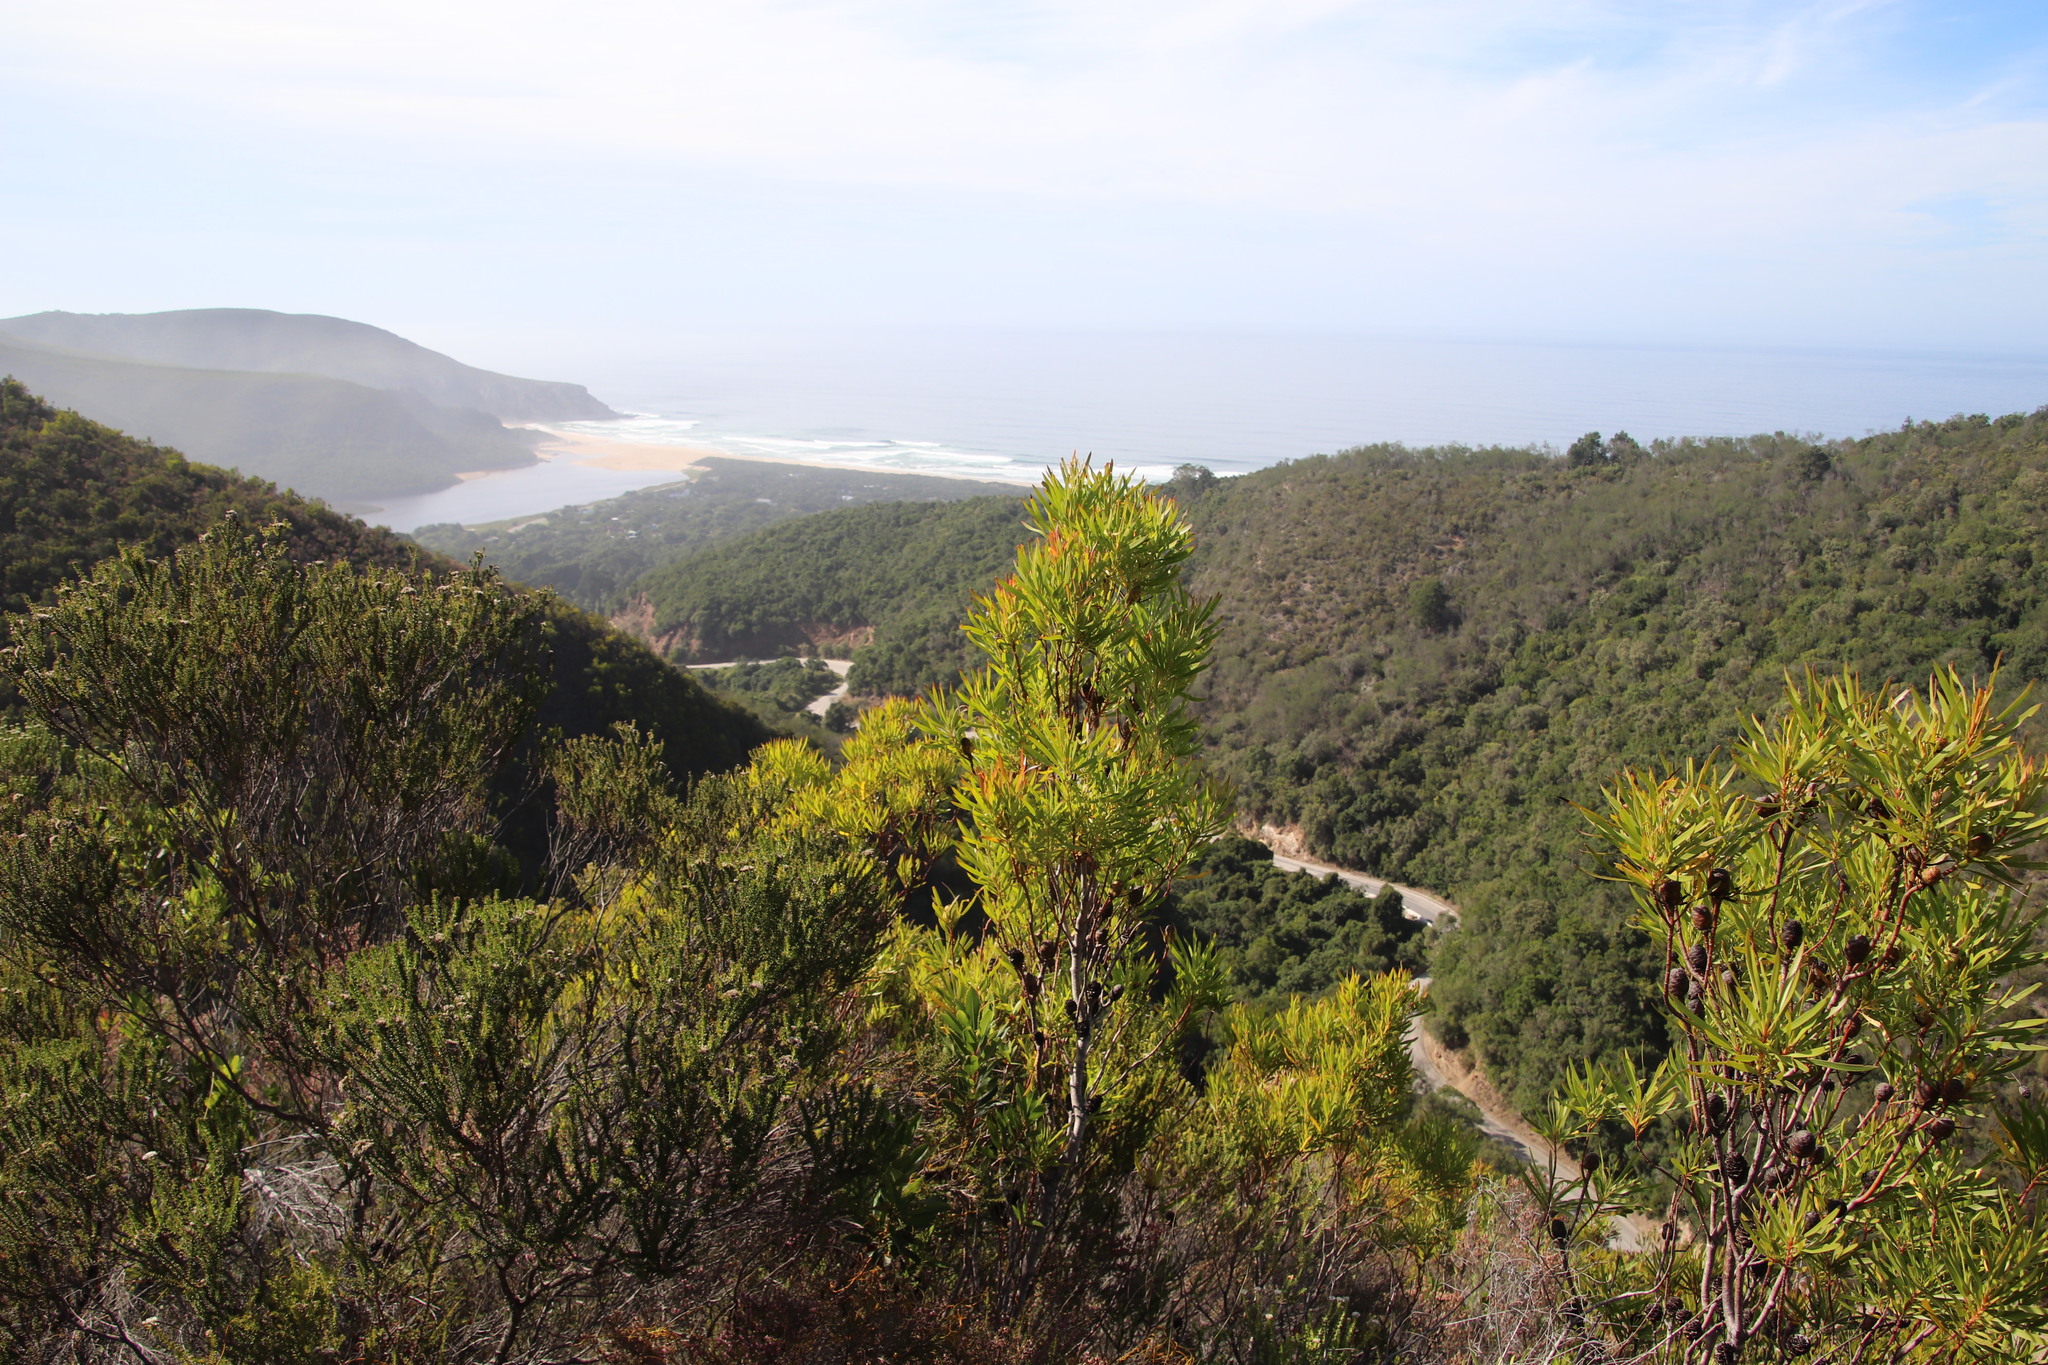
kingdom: Plantae
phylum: Tracheophyta
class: Magnoliopsida
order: Proteales
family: Proteaceae
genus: Leucadendron
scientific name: Leucadendron eucalyptifolium
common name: Gum-leaved conebush
